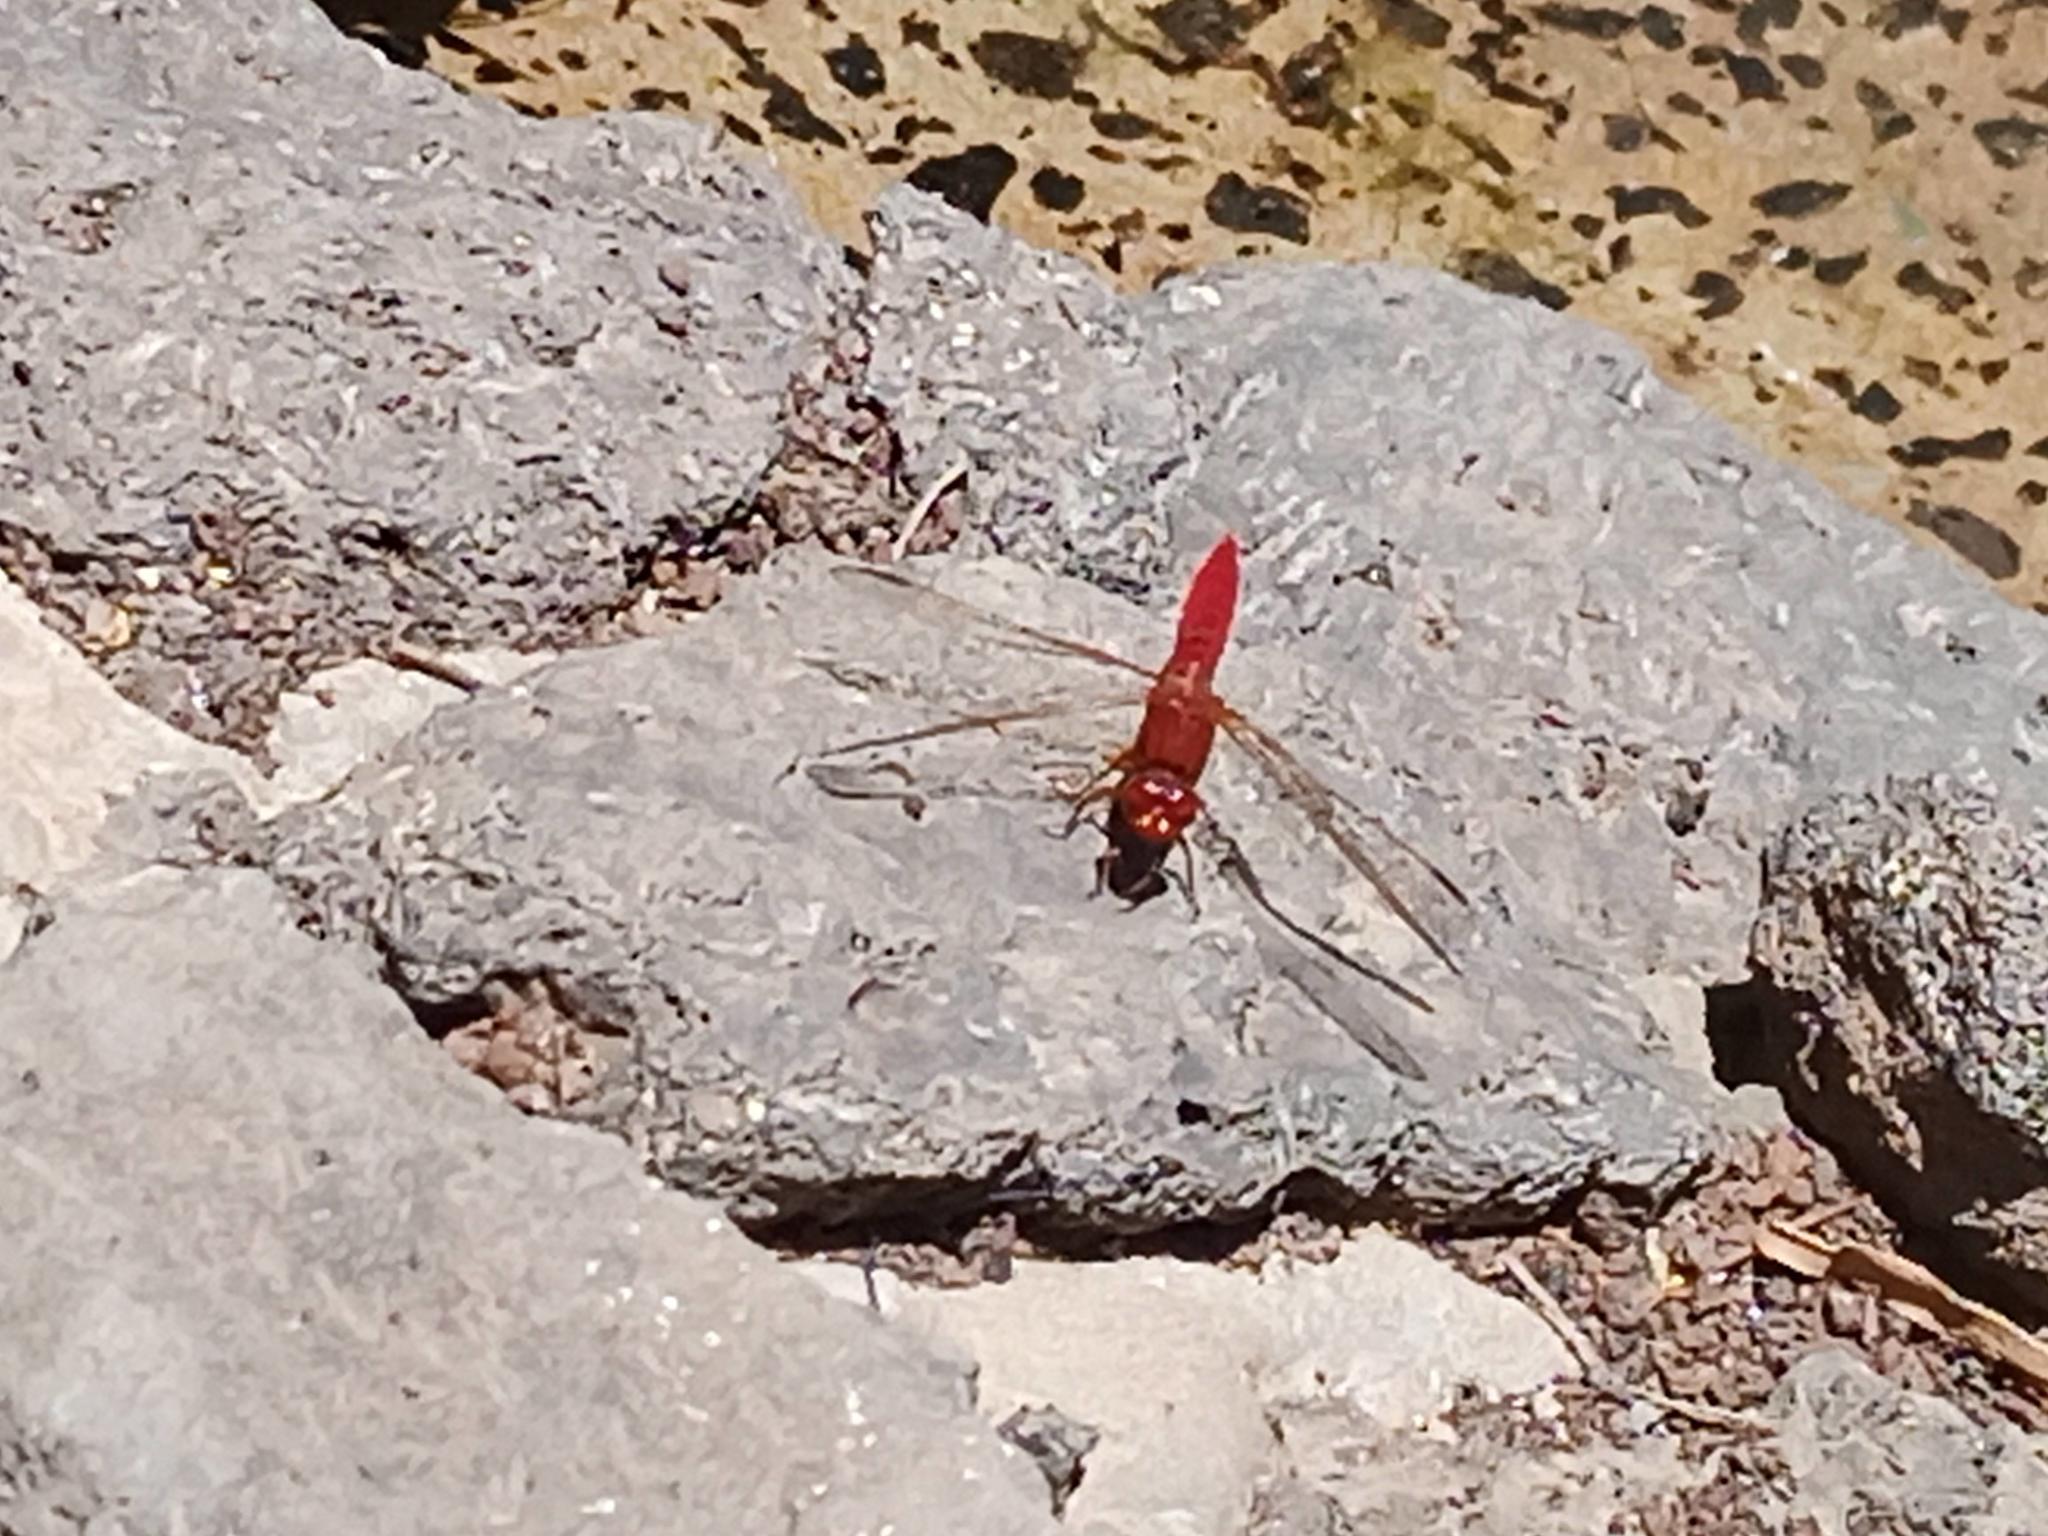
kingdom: Animalia
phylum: Arthropoda
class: Insecta
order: Odonata
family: Libellulidae
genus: Crocothemis
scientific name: Crocothemis erythraea
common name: Scarlet dragonfly
